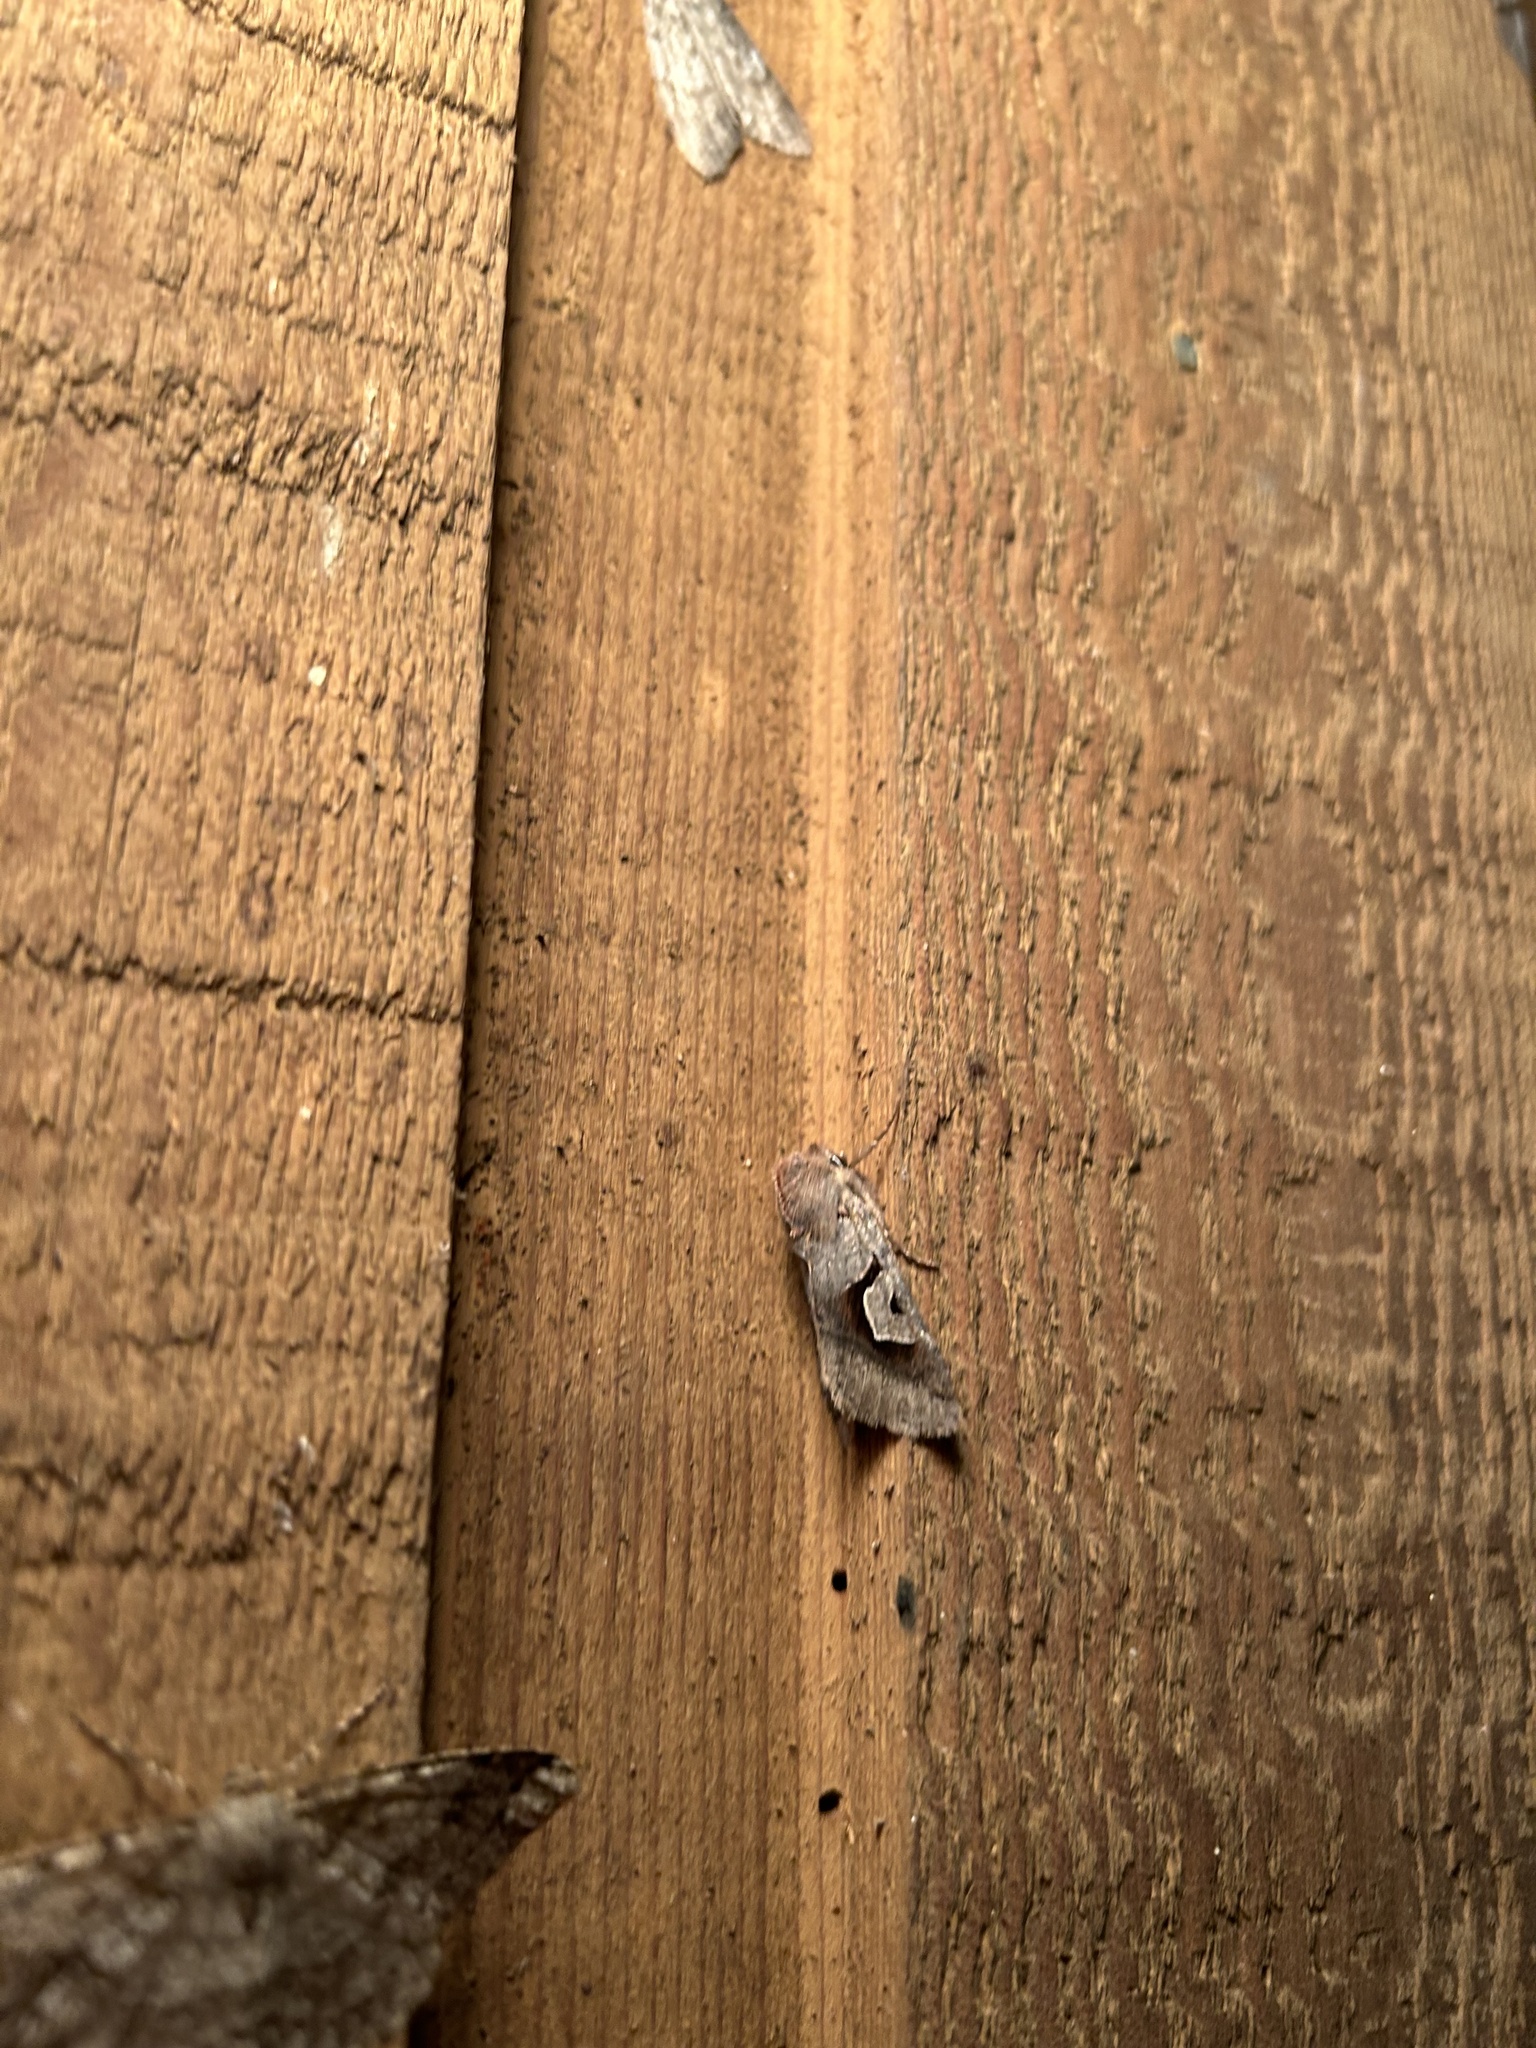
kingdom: Animalia
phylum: Arthropoda
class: Insecta
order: Lepidoptera
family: Noctuidae
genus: Acerra
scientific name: Acerra normalis
